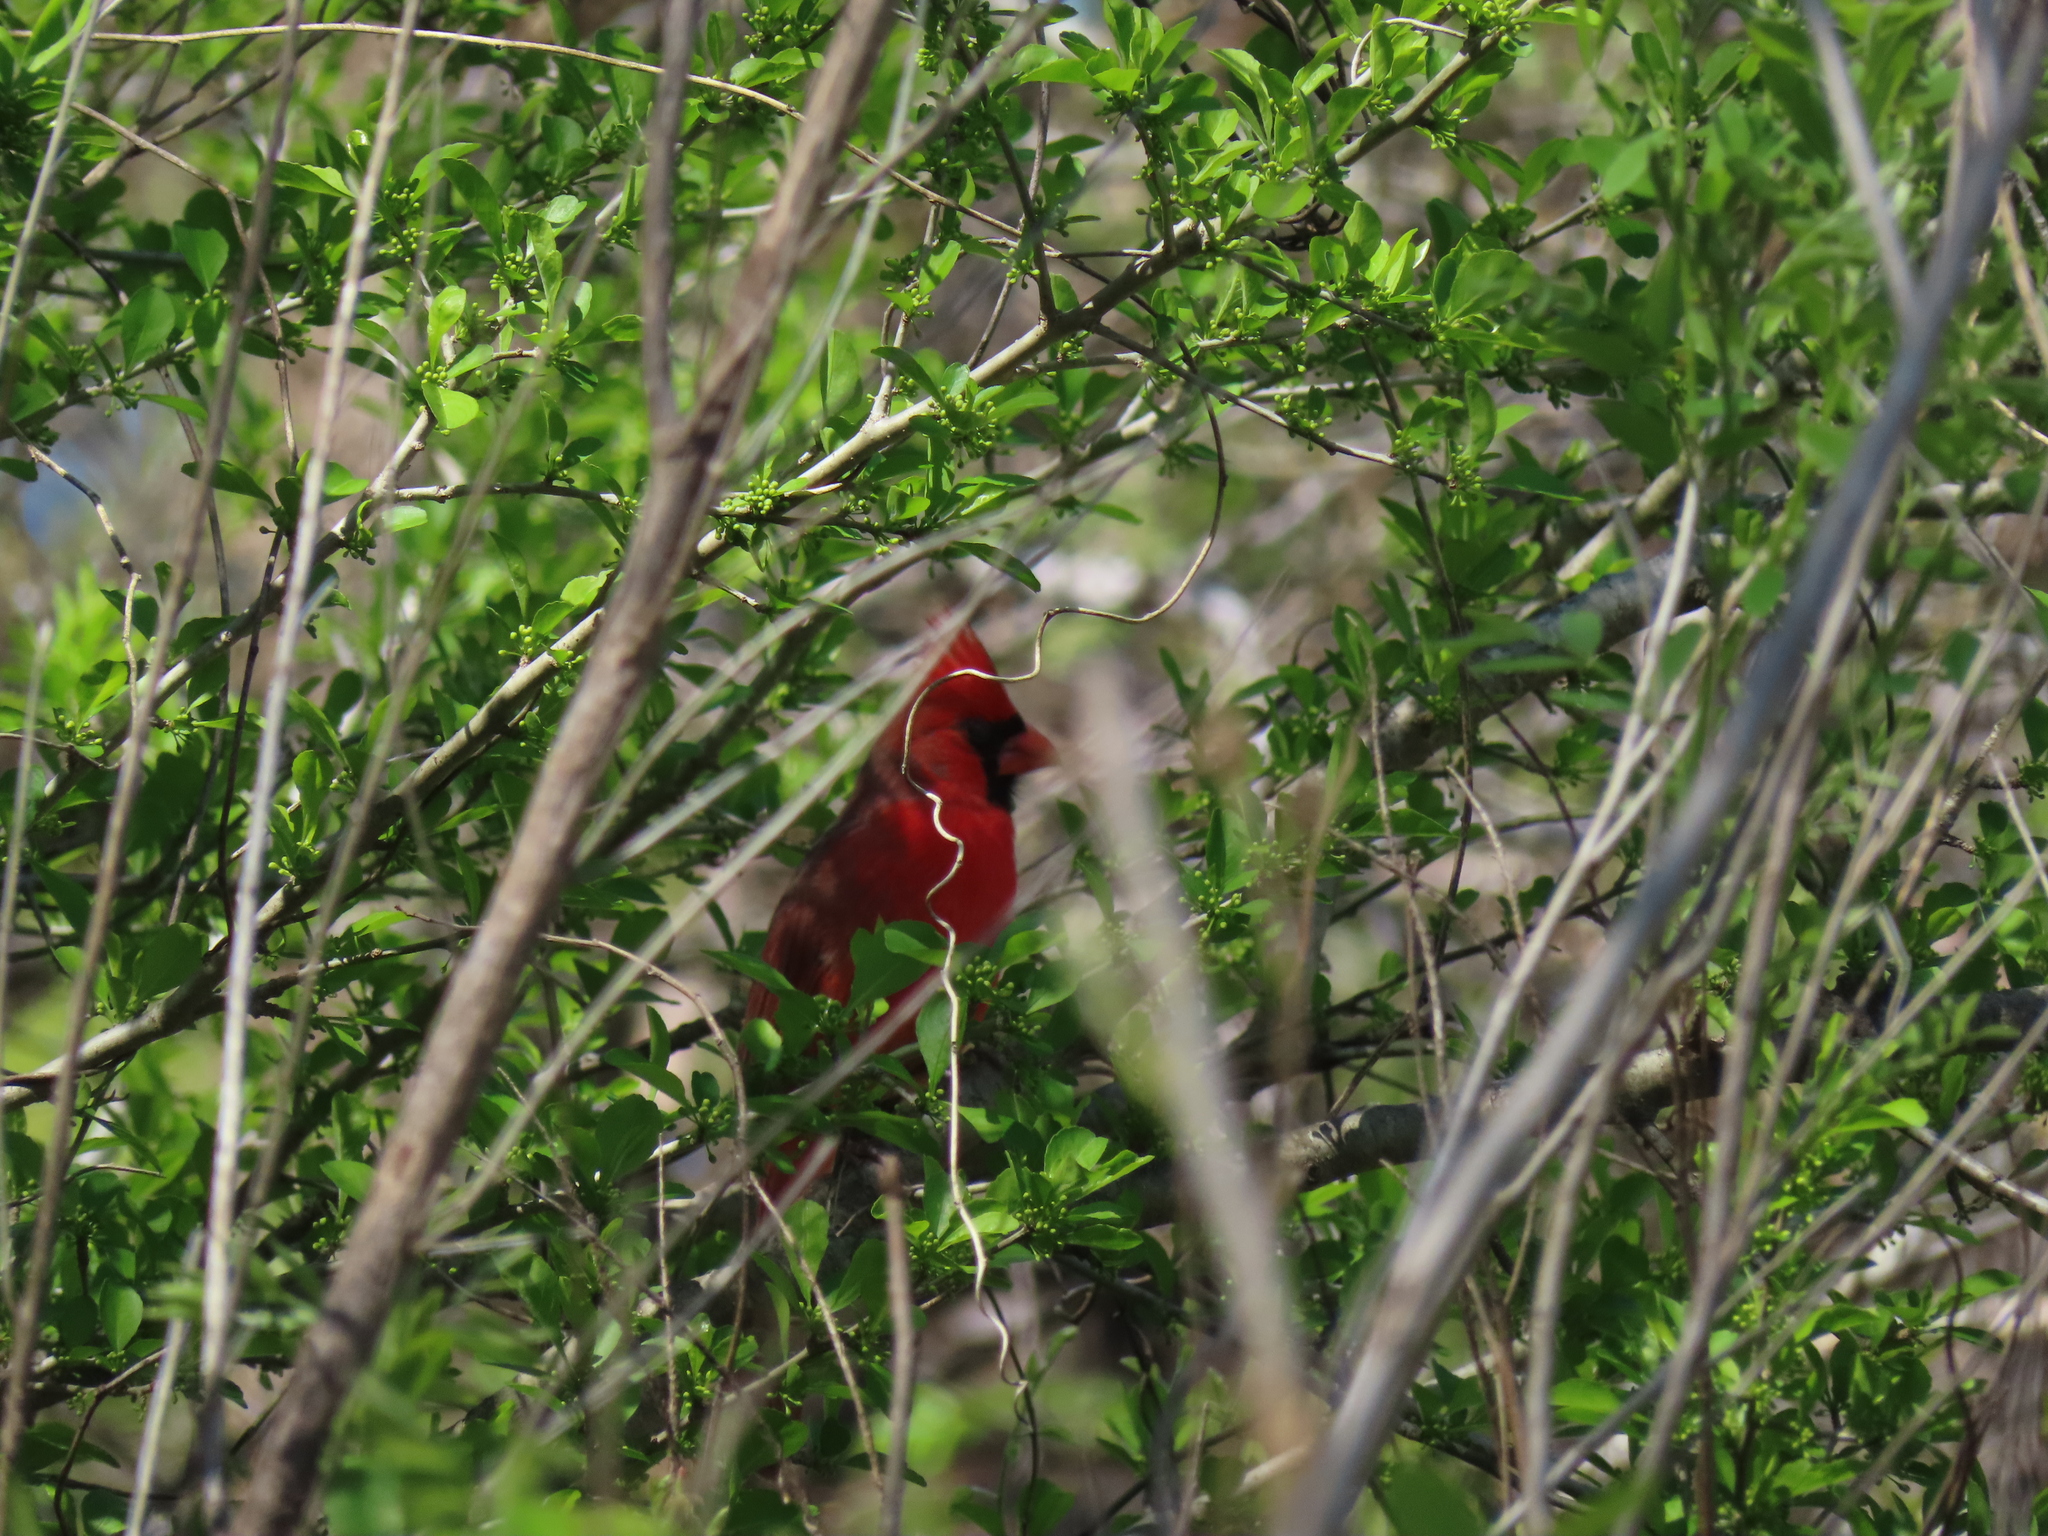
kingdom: Animalia
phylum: Chordata
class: Aves
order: Passeriformes
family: Cardinalidae
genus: Cardinalis
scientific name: Cardinalis cardinalis
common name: Northern cardinal
